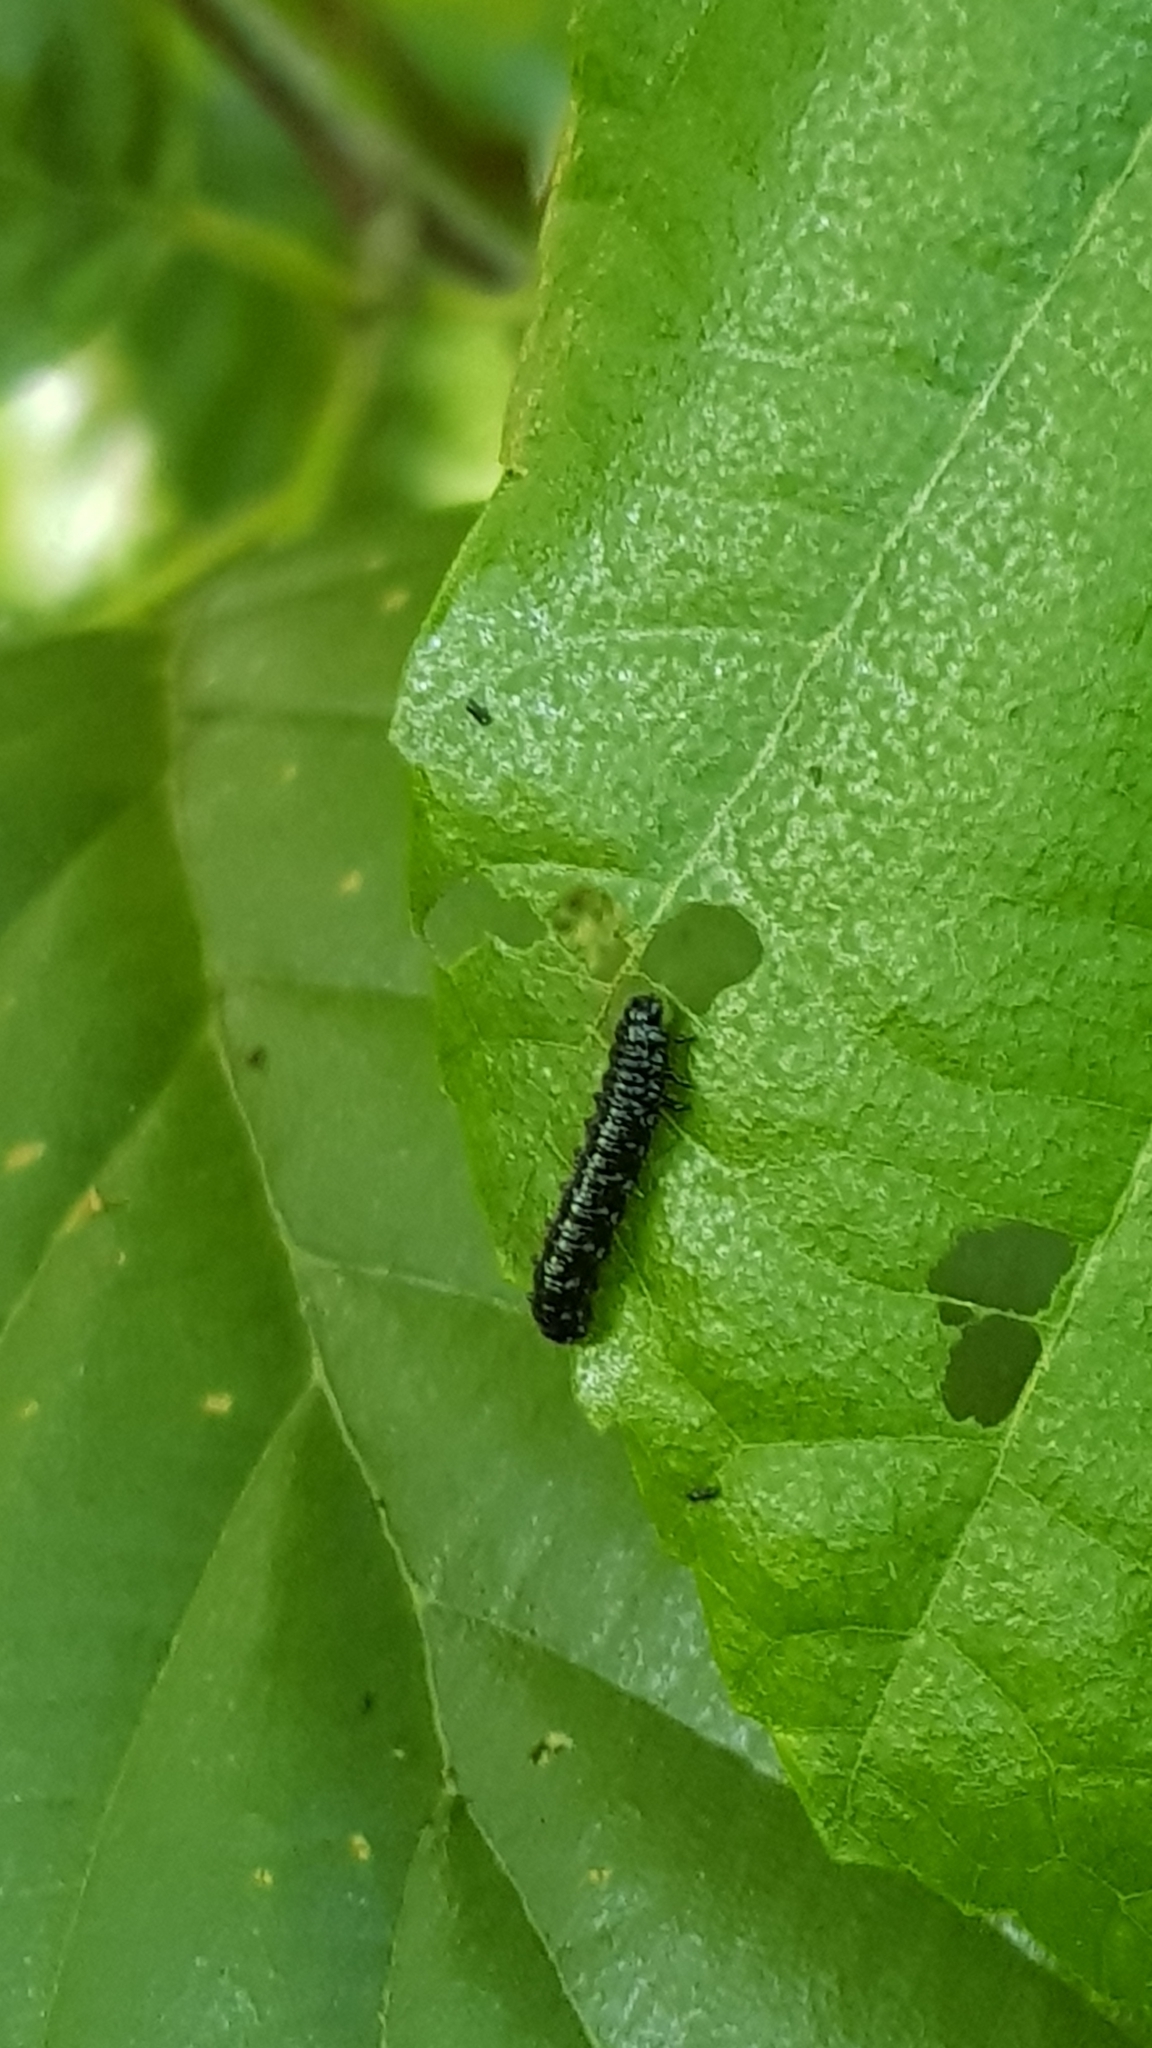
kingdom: Animalia
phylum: Arthropoda
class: Insecta
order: Coleoptera
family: Chrysomelidae
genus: Agelastica
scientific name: Agelastica alni
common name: Alder leaf beetle
